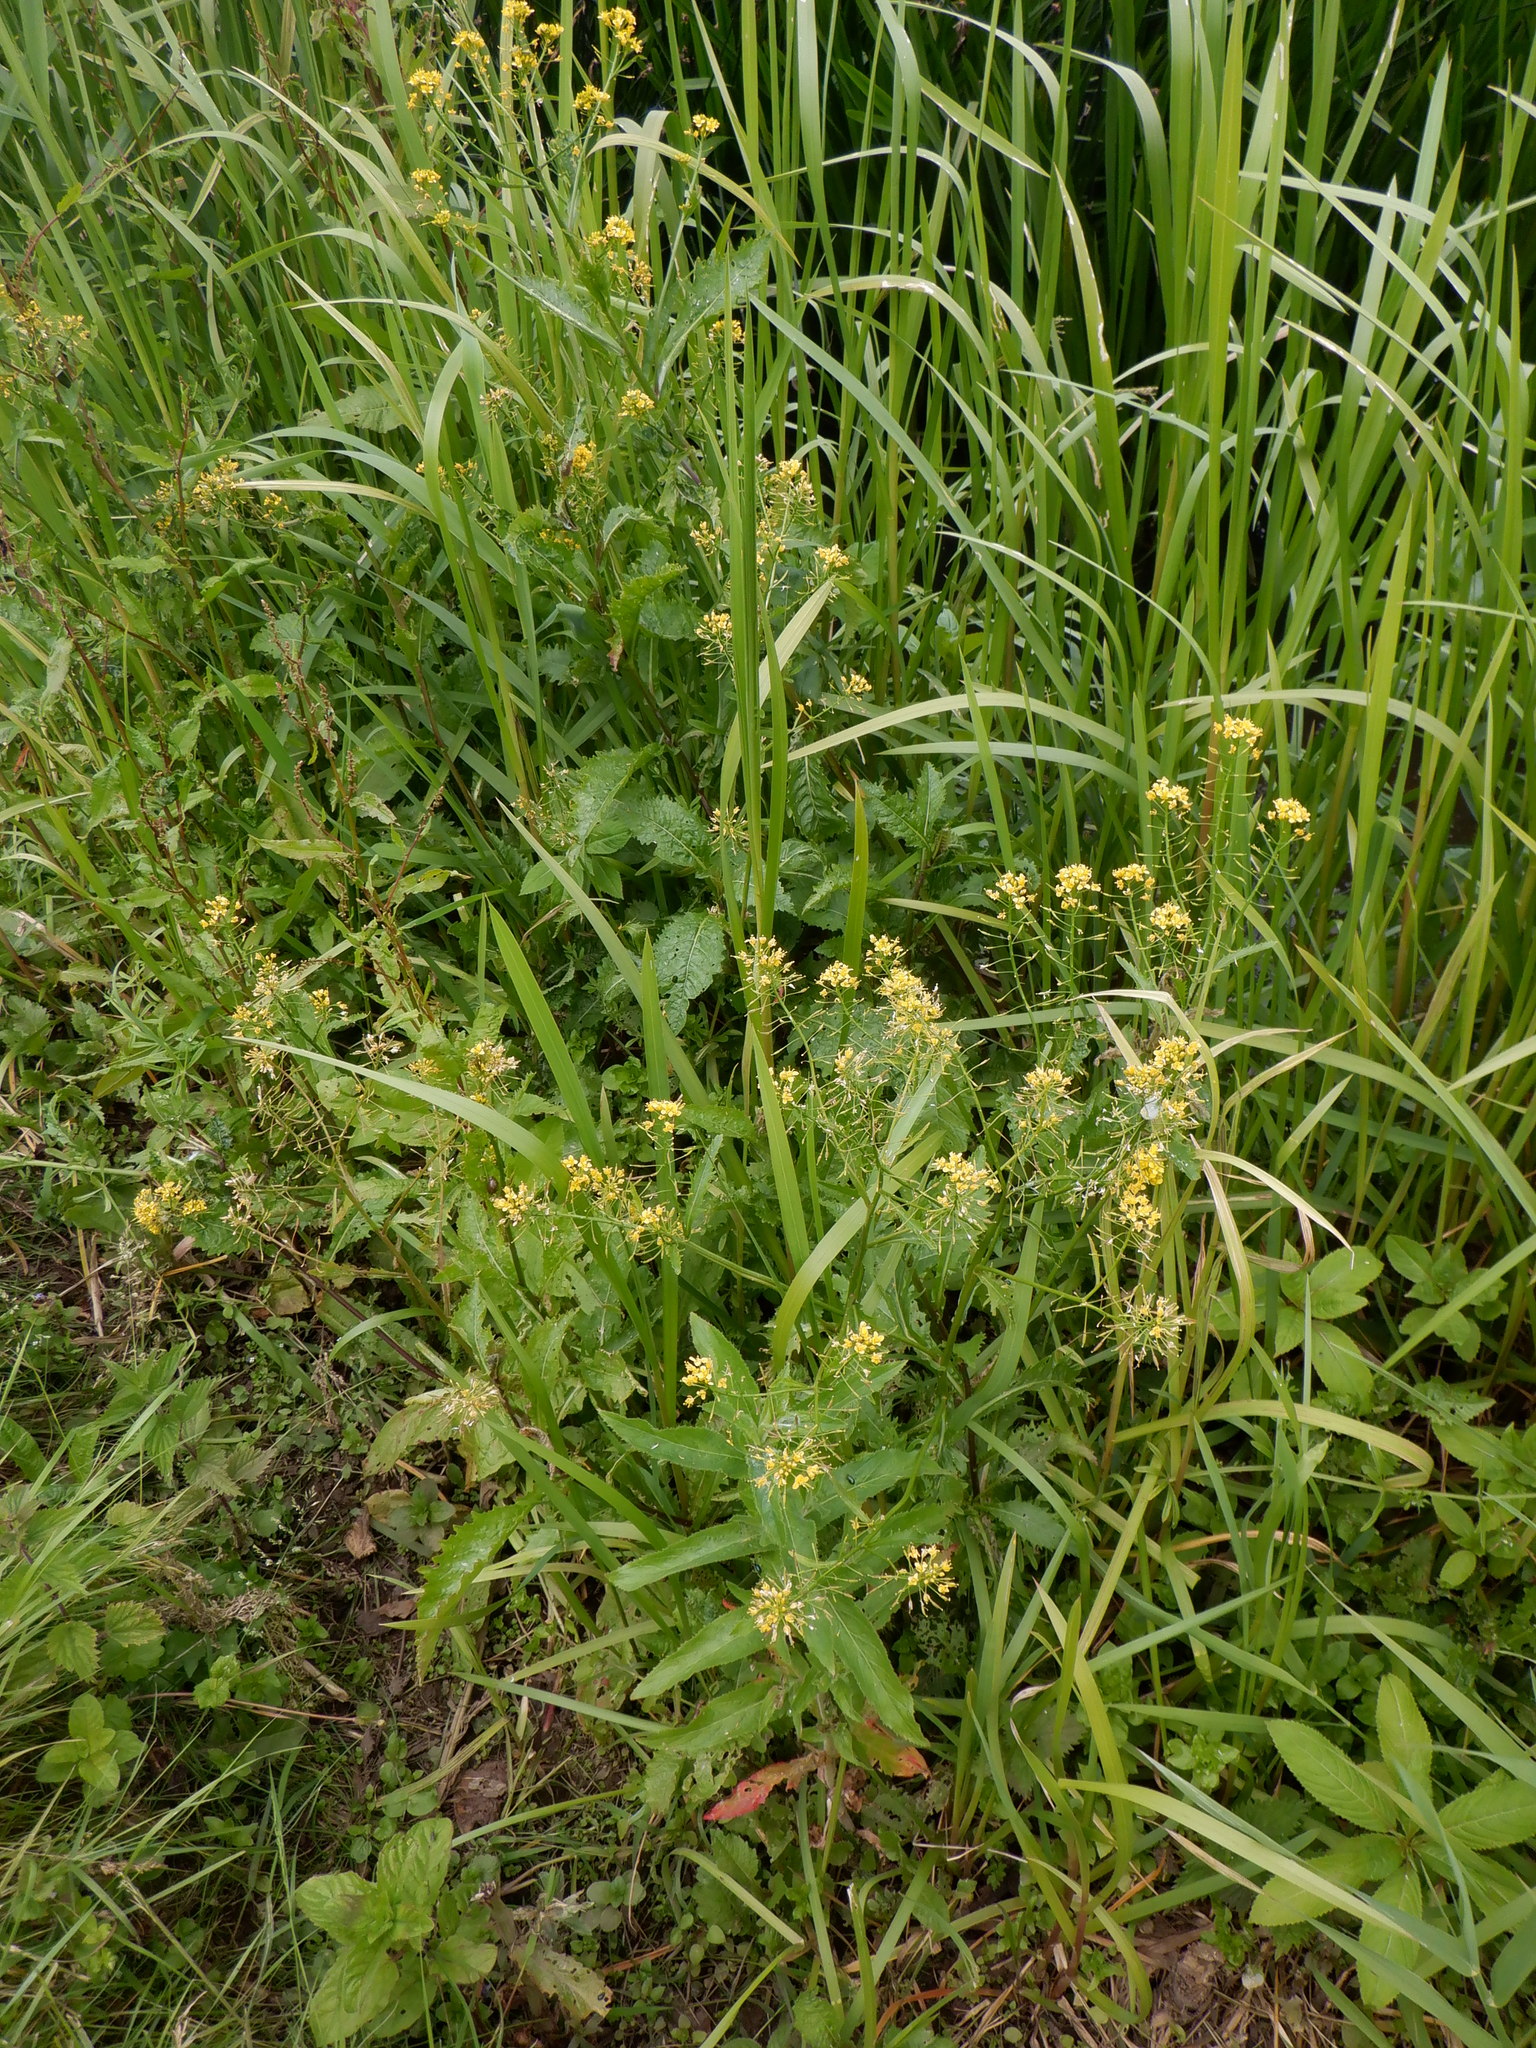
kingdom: Plantae
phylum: Tracheophyta
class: Magnoliopsida
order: Brassicales
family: Brassicaceae
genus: Rorippa
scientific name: Rorippa amphibia
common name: Great yellow-cress
